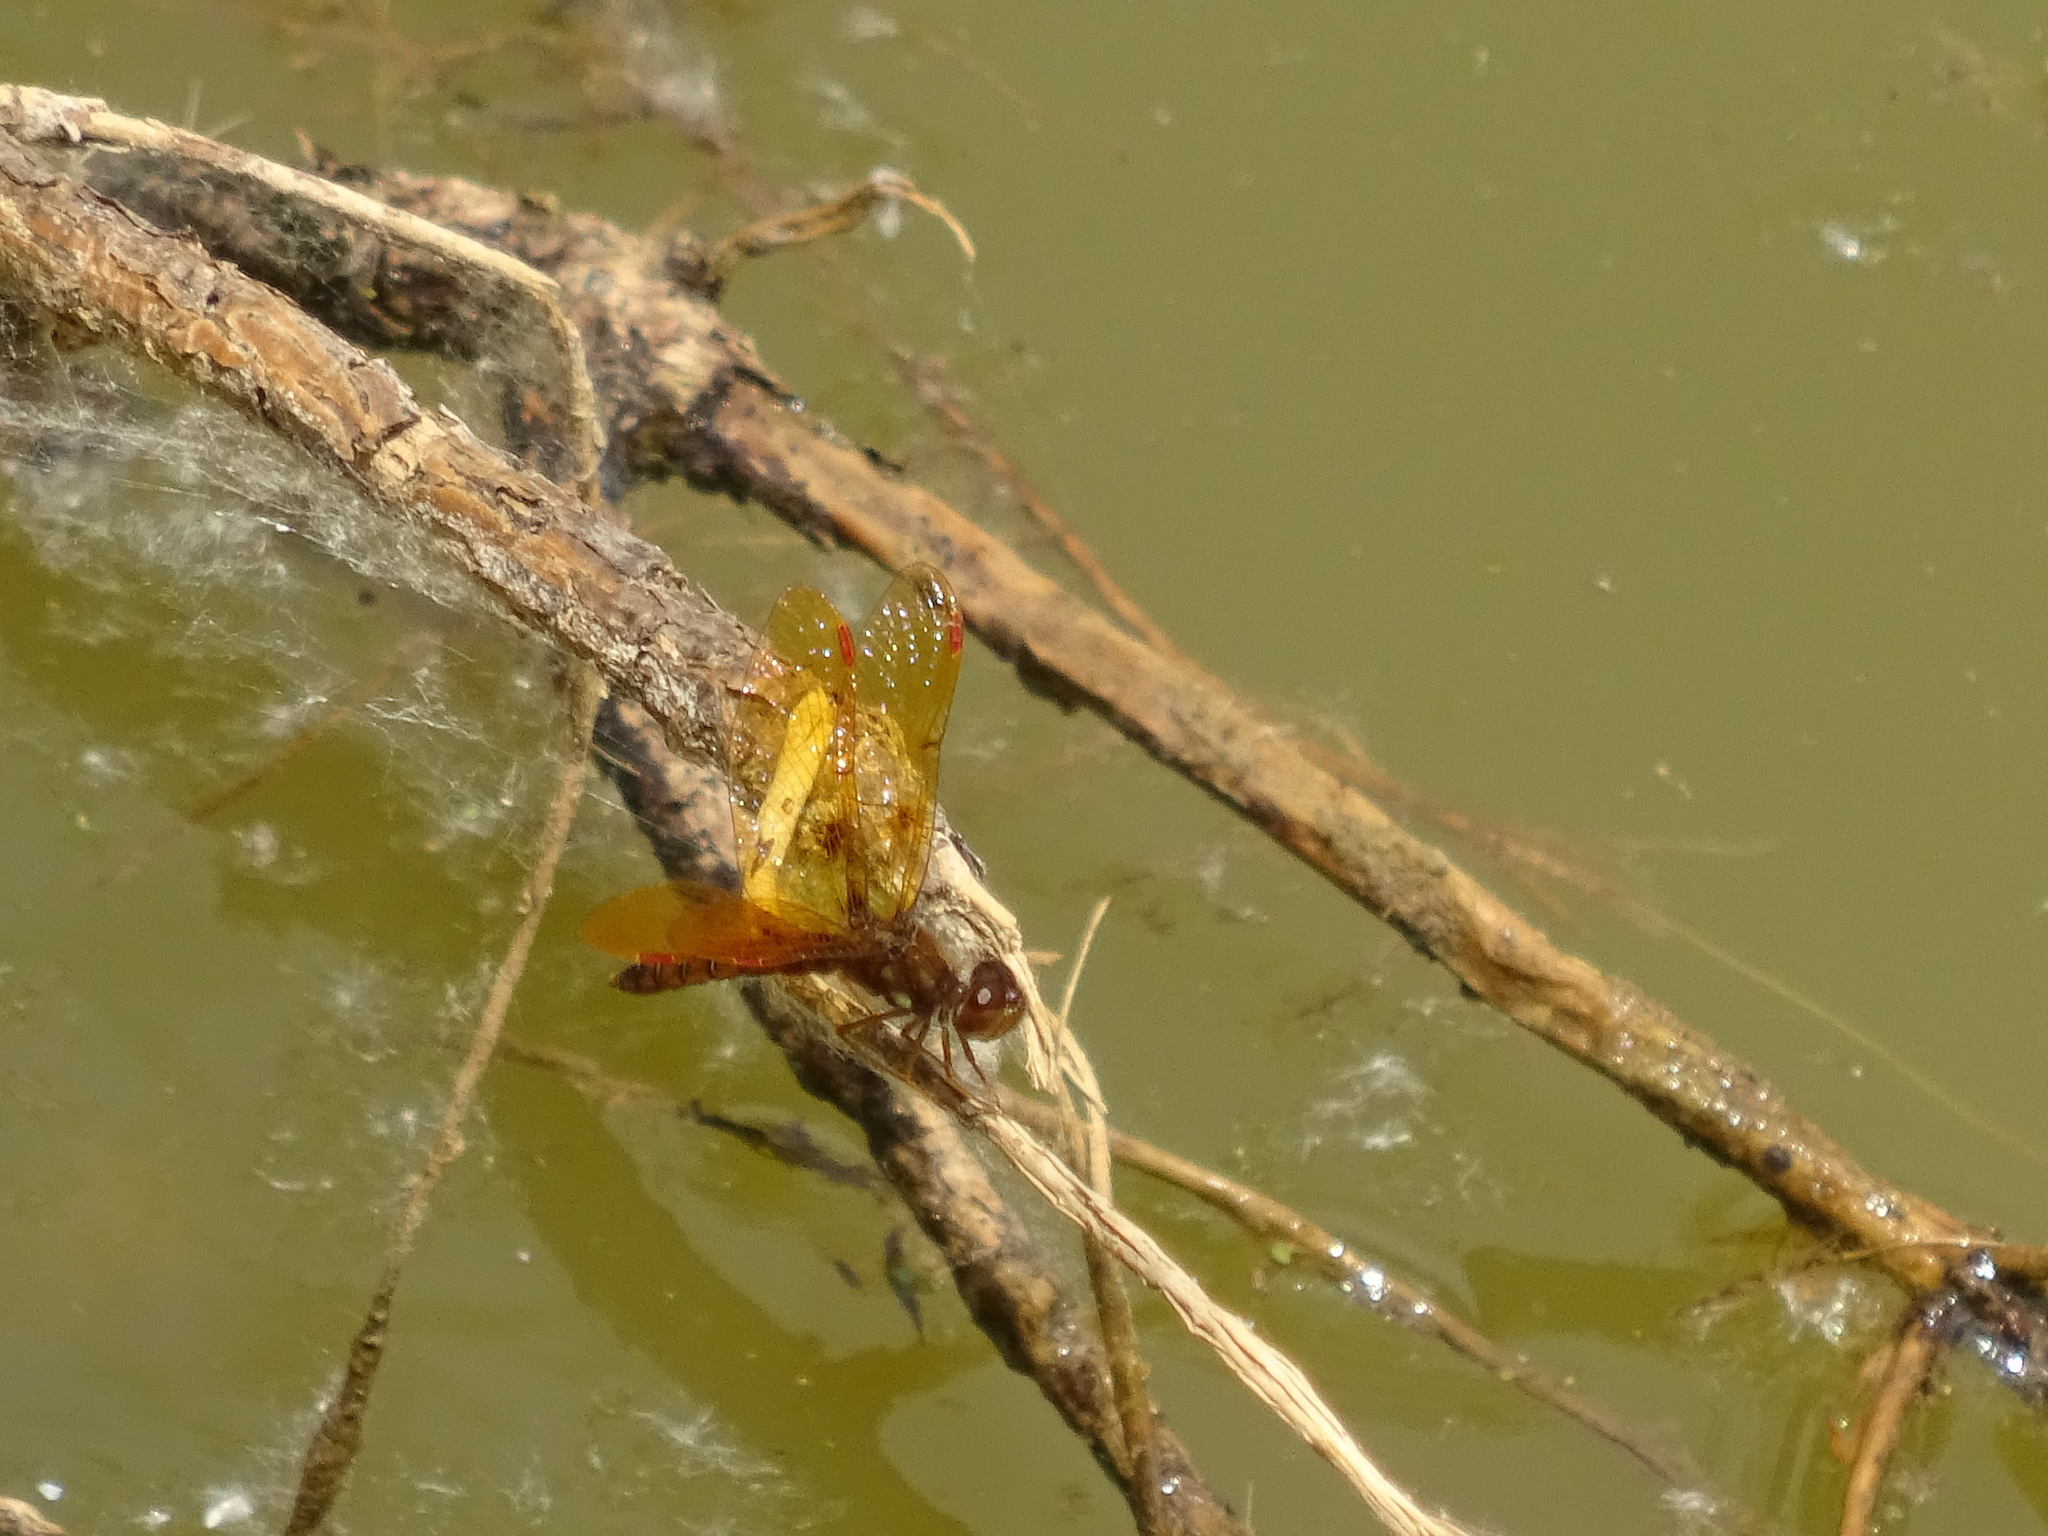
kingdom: Animalia
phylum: Arthropoda
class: Insecta
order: Odonata
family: Libellulidae
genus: Perithemis
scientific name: Perithemis tenera
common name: Eastern amberwing
